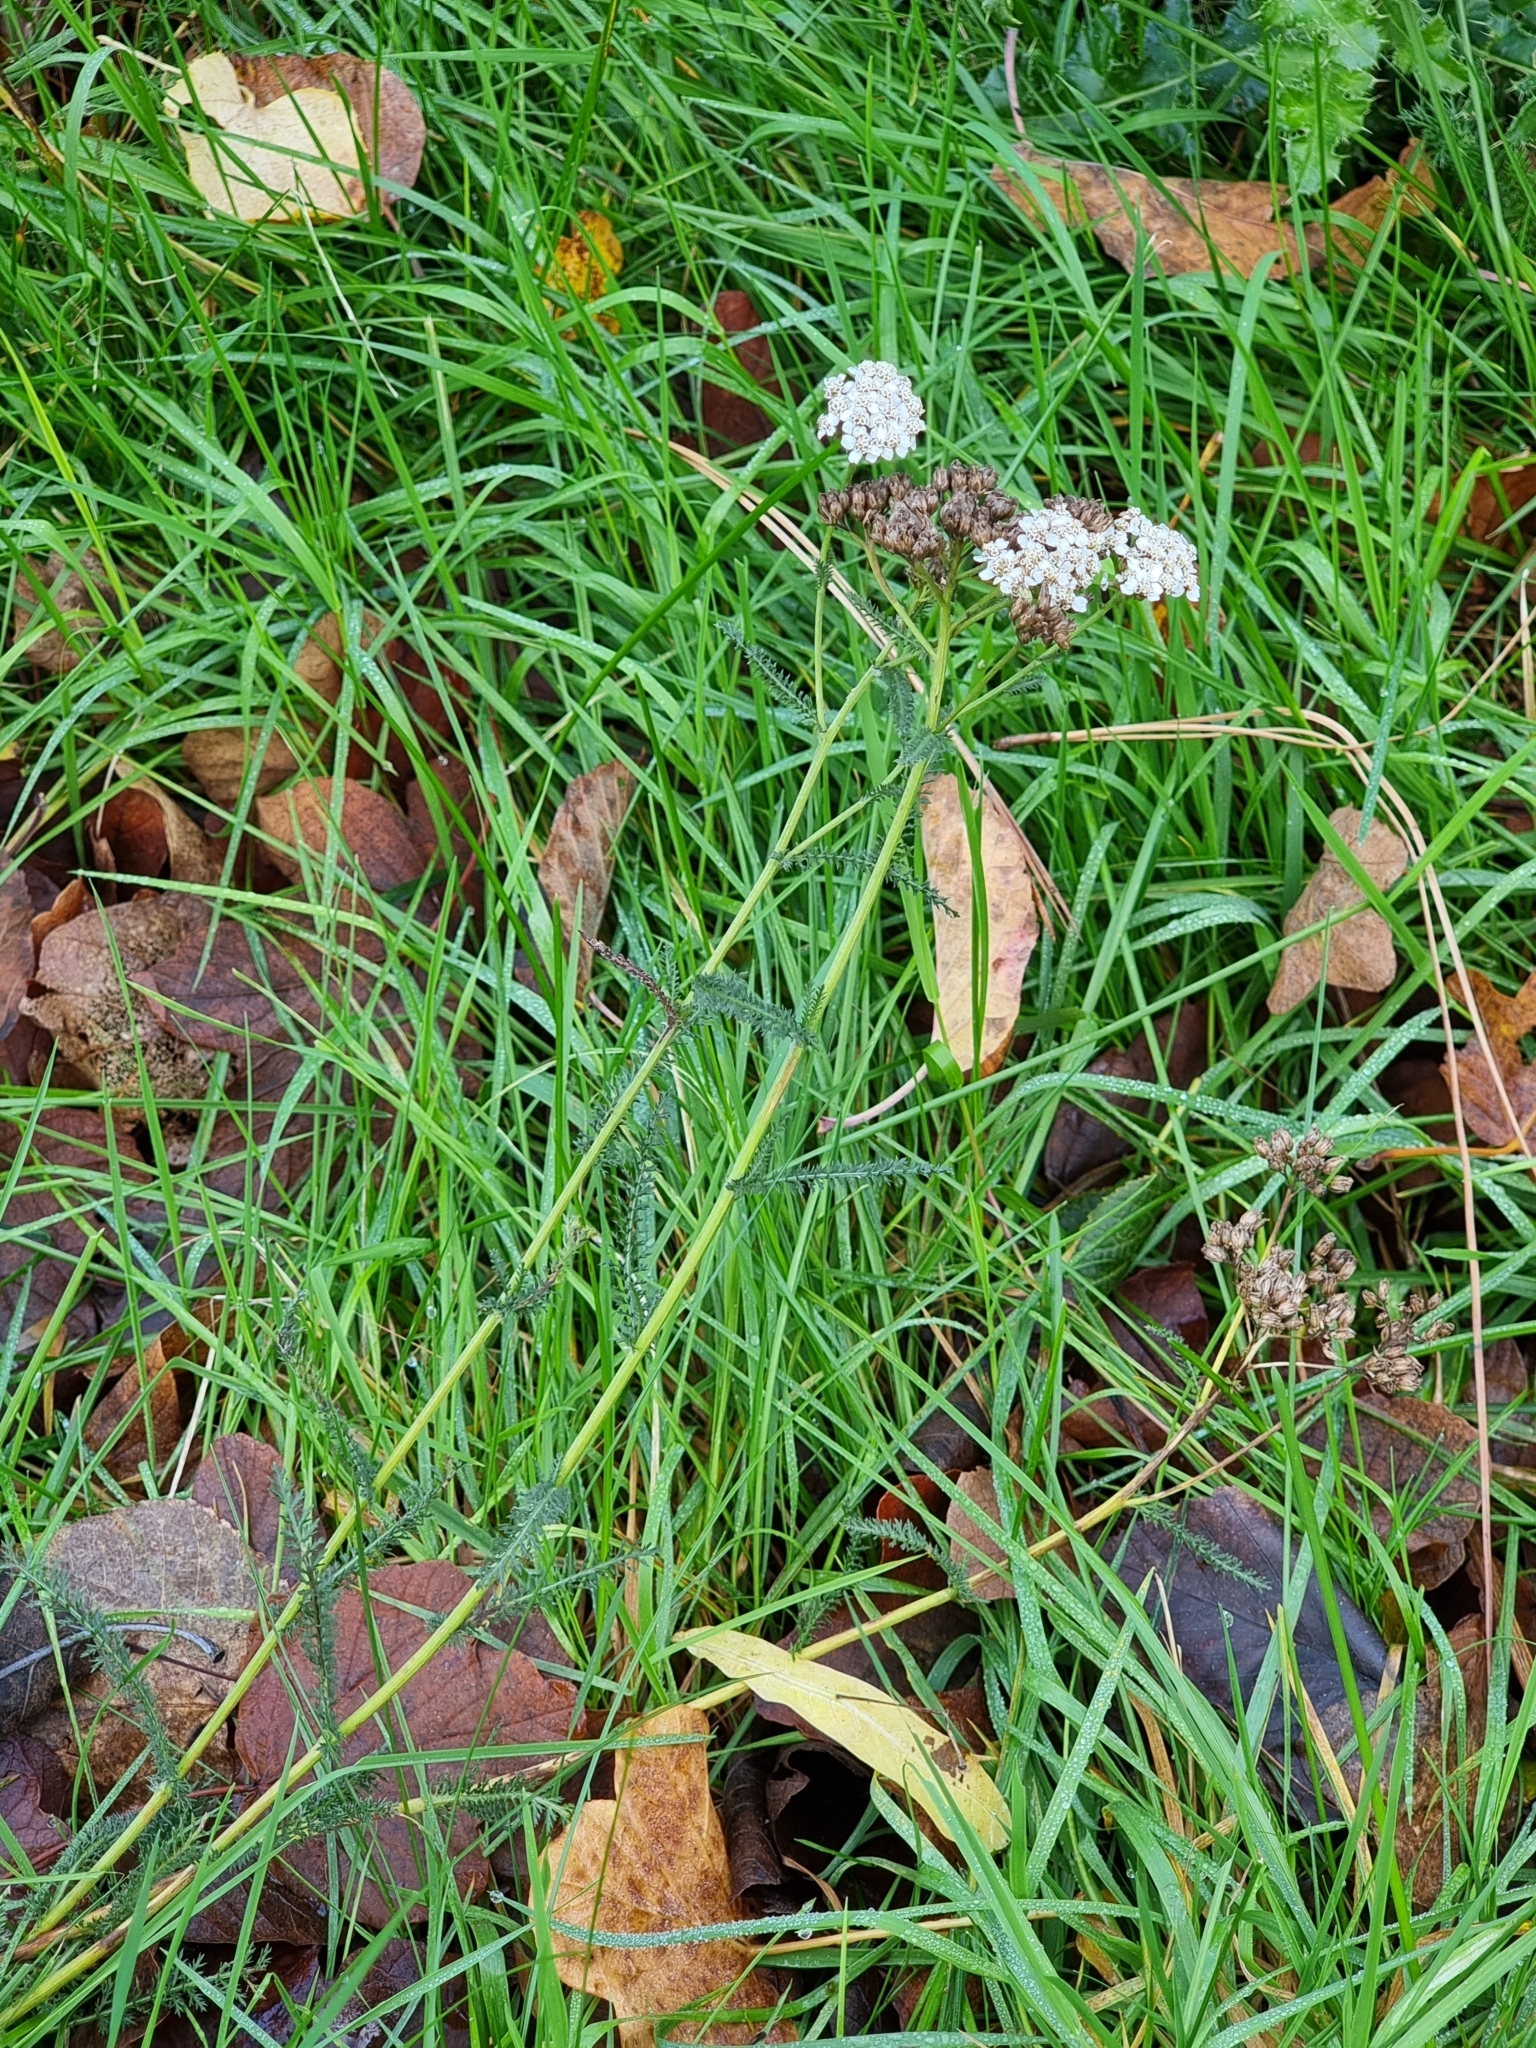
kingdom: Plantae
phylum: Tracheophyta
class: Magnoliopsida
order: Asterales
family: Asteraceae
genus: Achillea
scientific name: Achillea millefolium
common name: Yarrow
